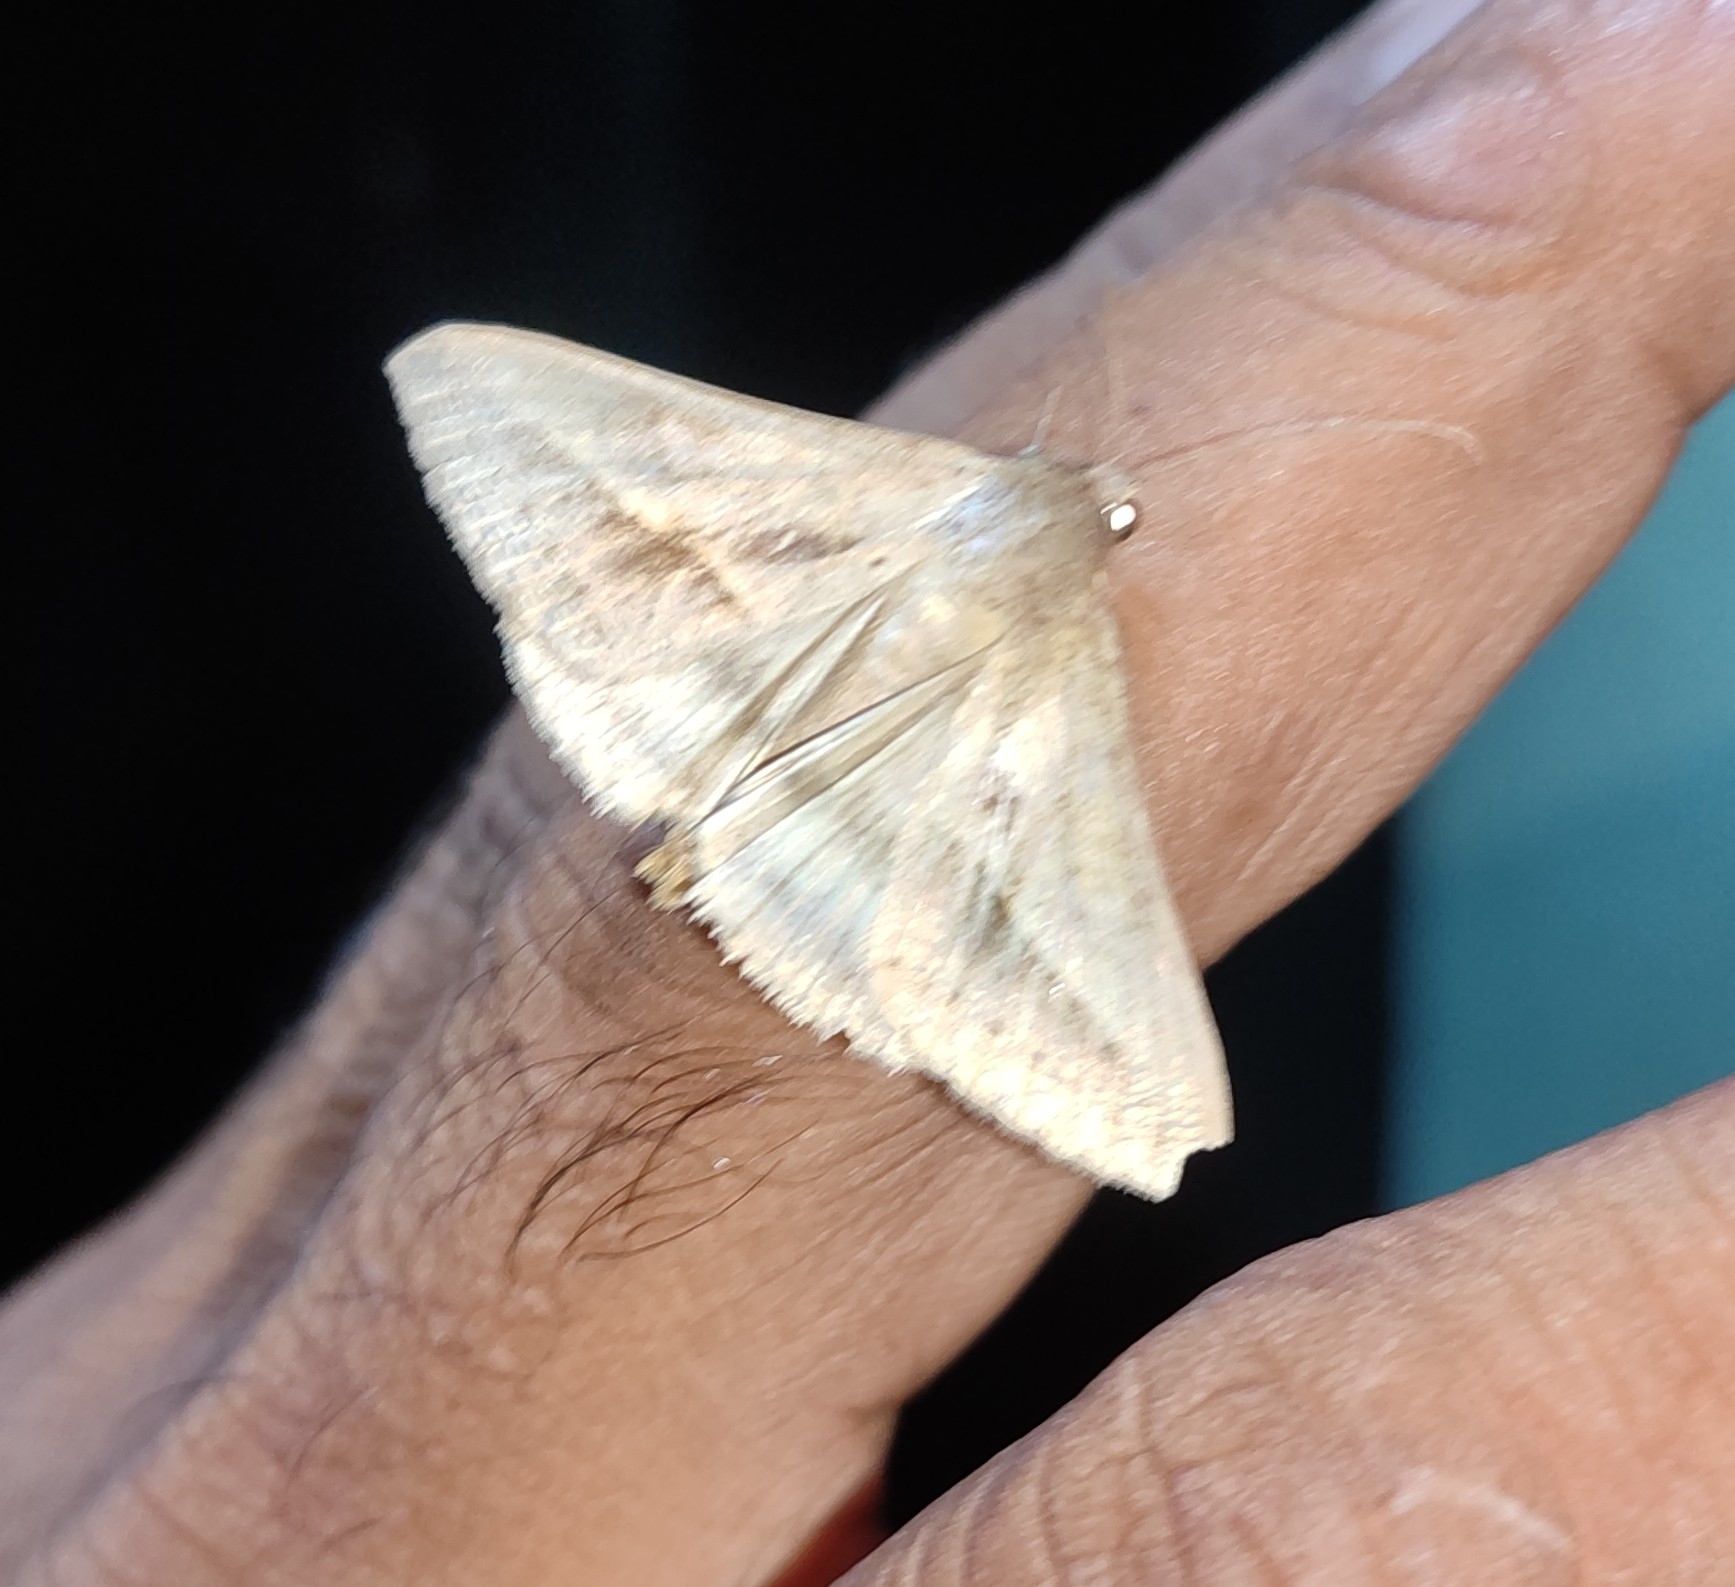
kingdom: Animalia
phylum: Arthropoda
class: Insecta
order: Lepidoptera
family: Erebidae
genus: Mocis
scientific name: Mocis frugalis
